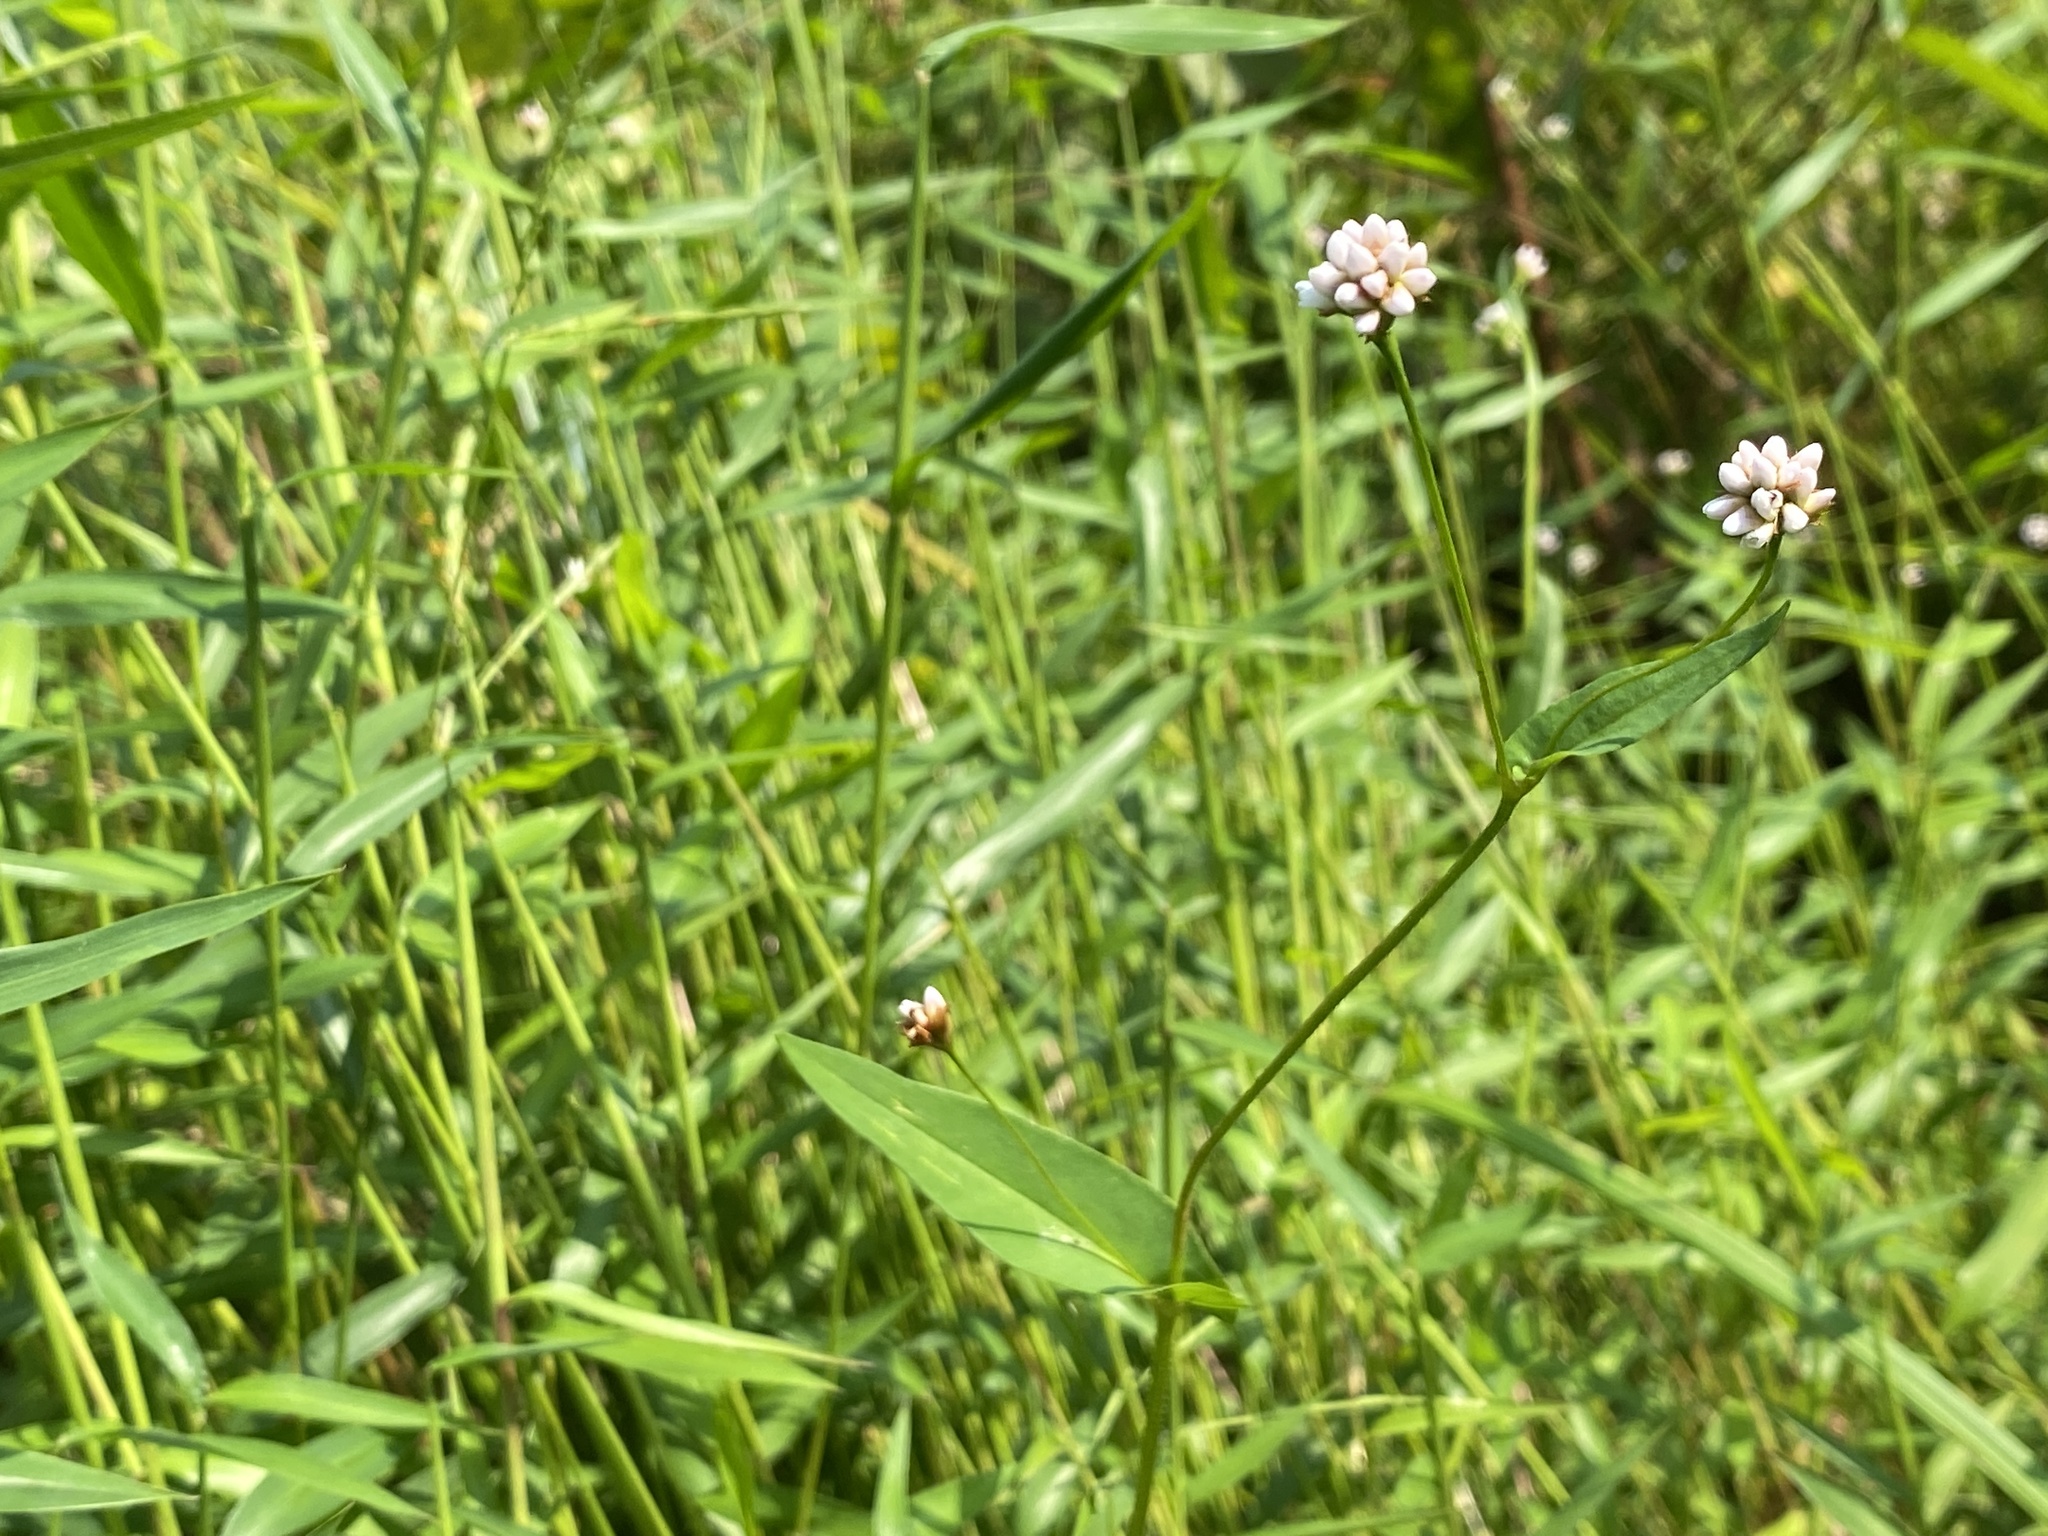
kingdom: Plantae
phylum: Tracheophyta
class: Magnoliopsida
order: Caryophyllales
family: Polygonaceae
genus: Persicaria
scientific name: Persicaria sagittata
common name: American tearthumb
